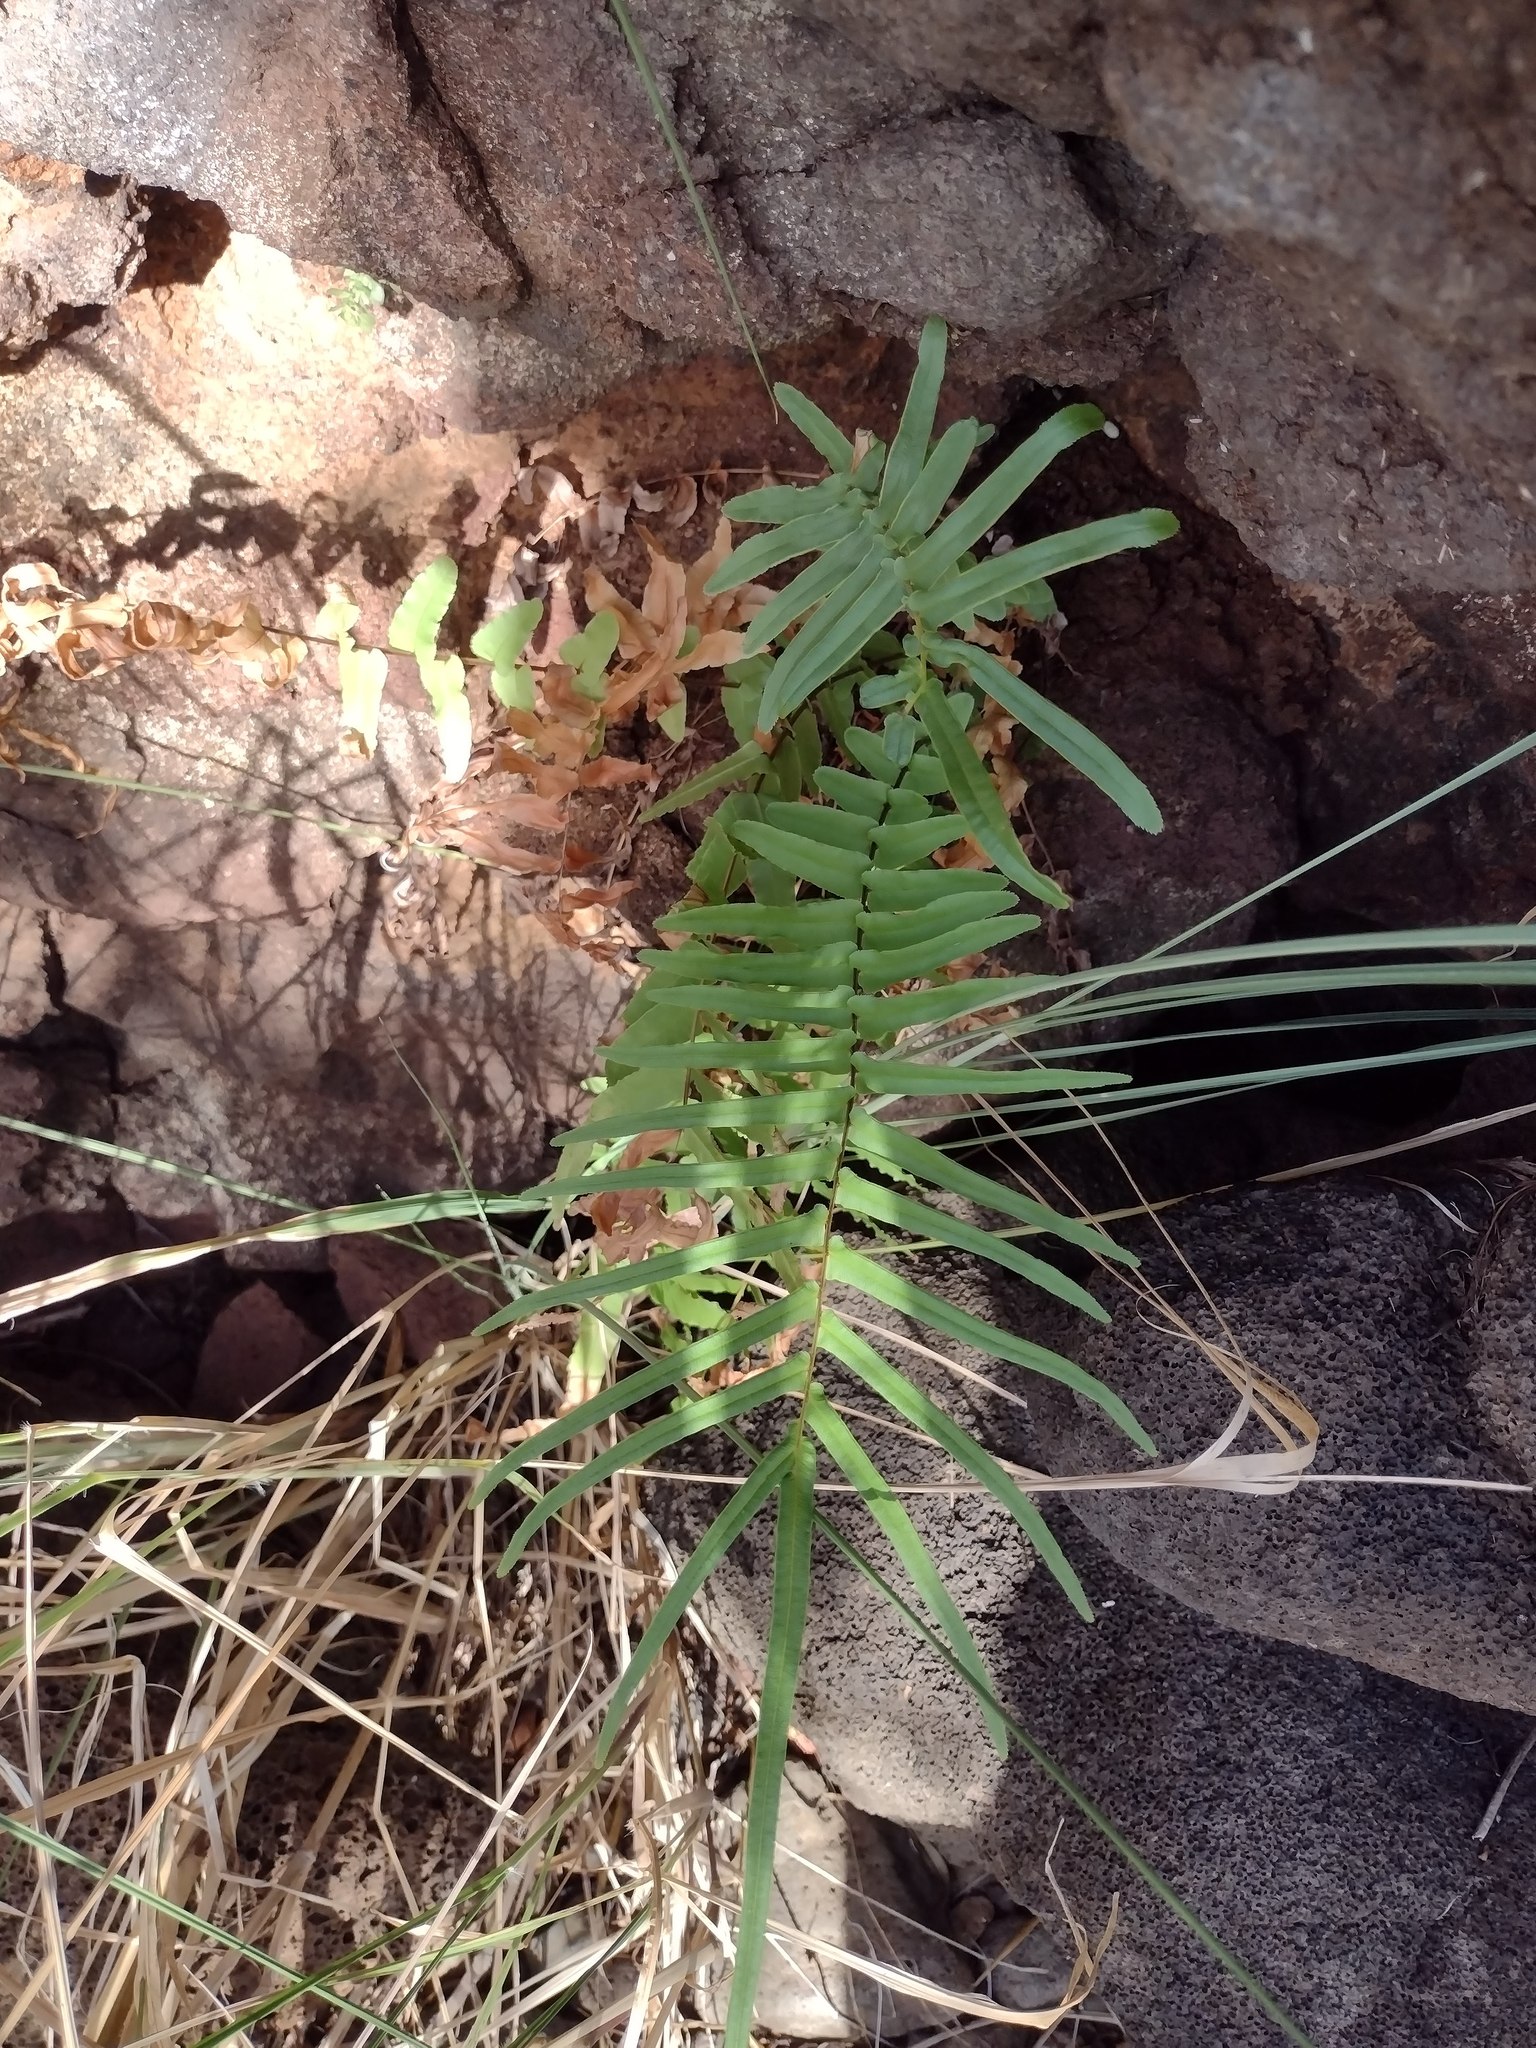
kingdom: Plantae
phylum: Tracheophyta
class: Polypodiopsida
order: Polypodiales
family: Pteridaceae
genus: Pteris
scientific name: Pteris vittata
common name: Ladder brake
